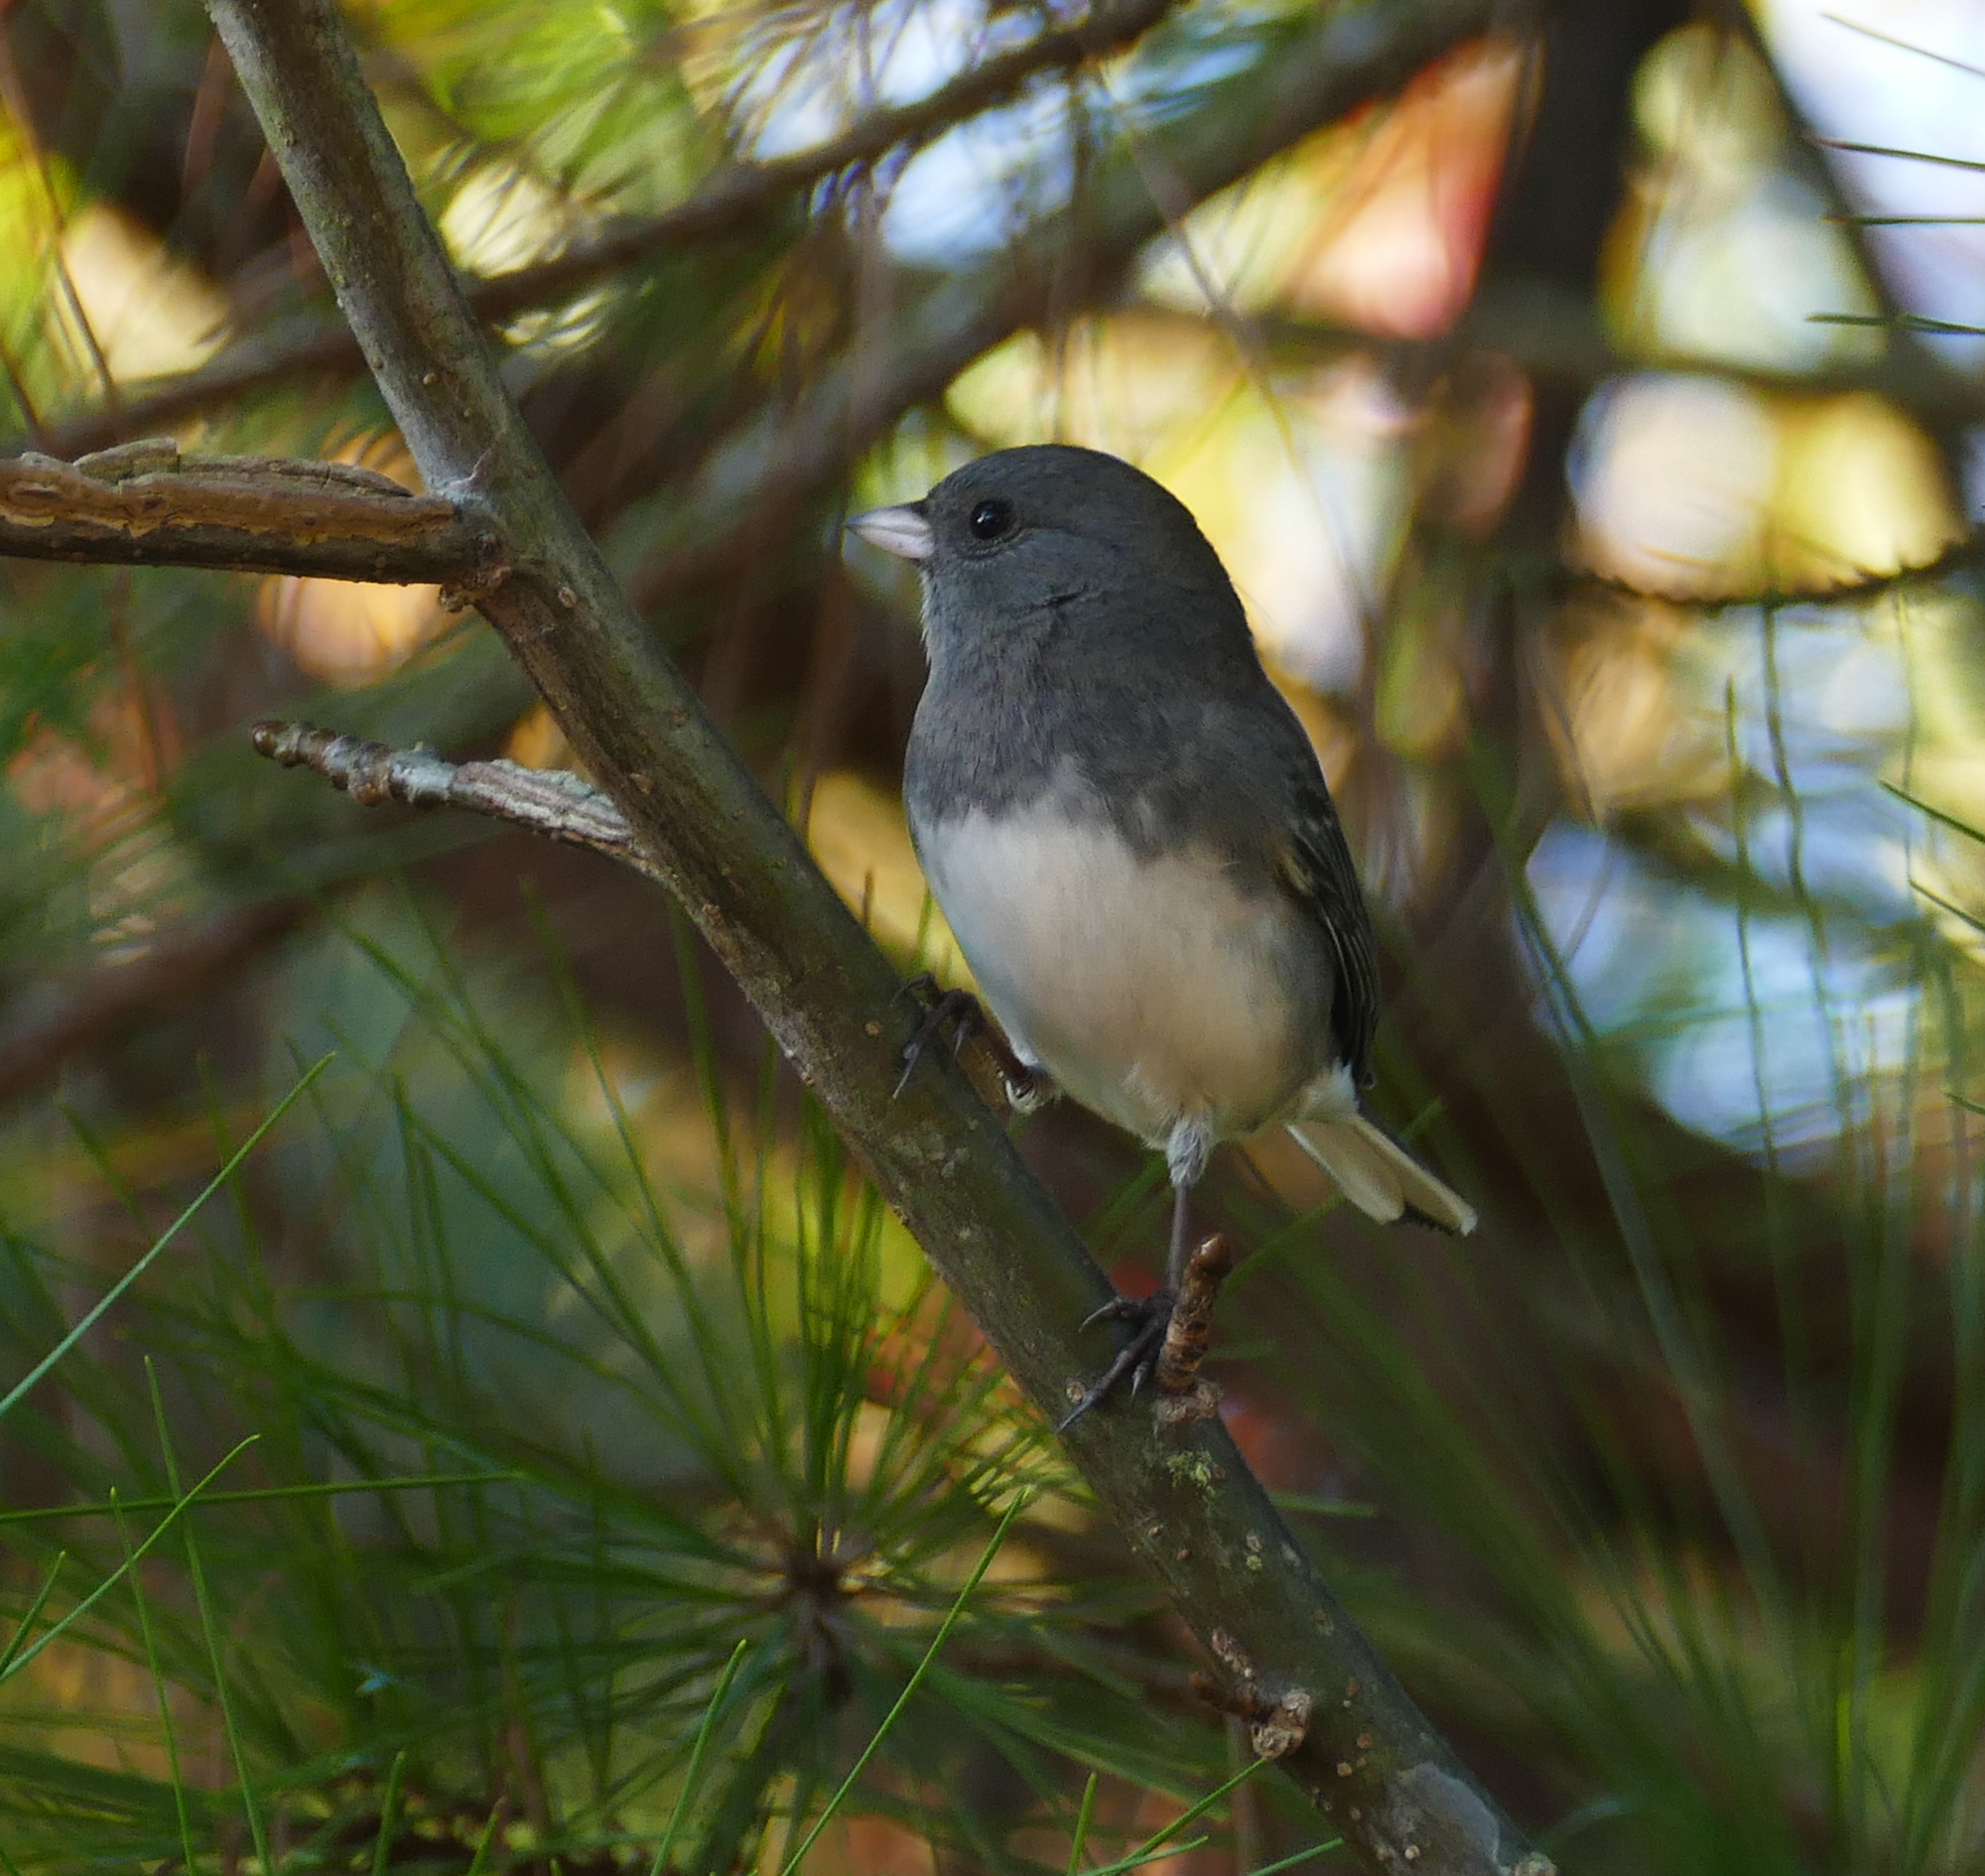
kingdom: Animalia
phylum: Chordata
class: Aves
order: Passeriformes
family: Passerellidae
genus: Junco
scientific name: Junco hyemalis
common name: Dark-eyed junco
